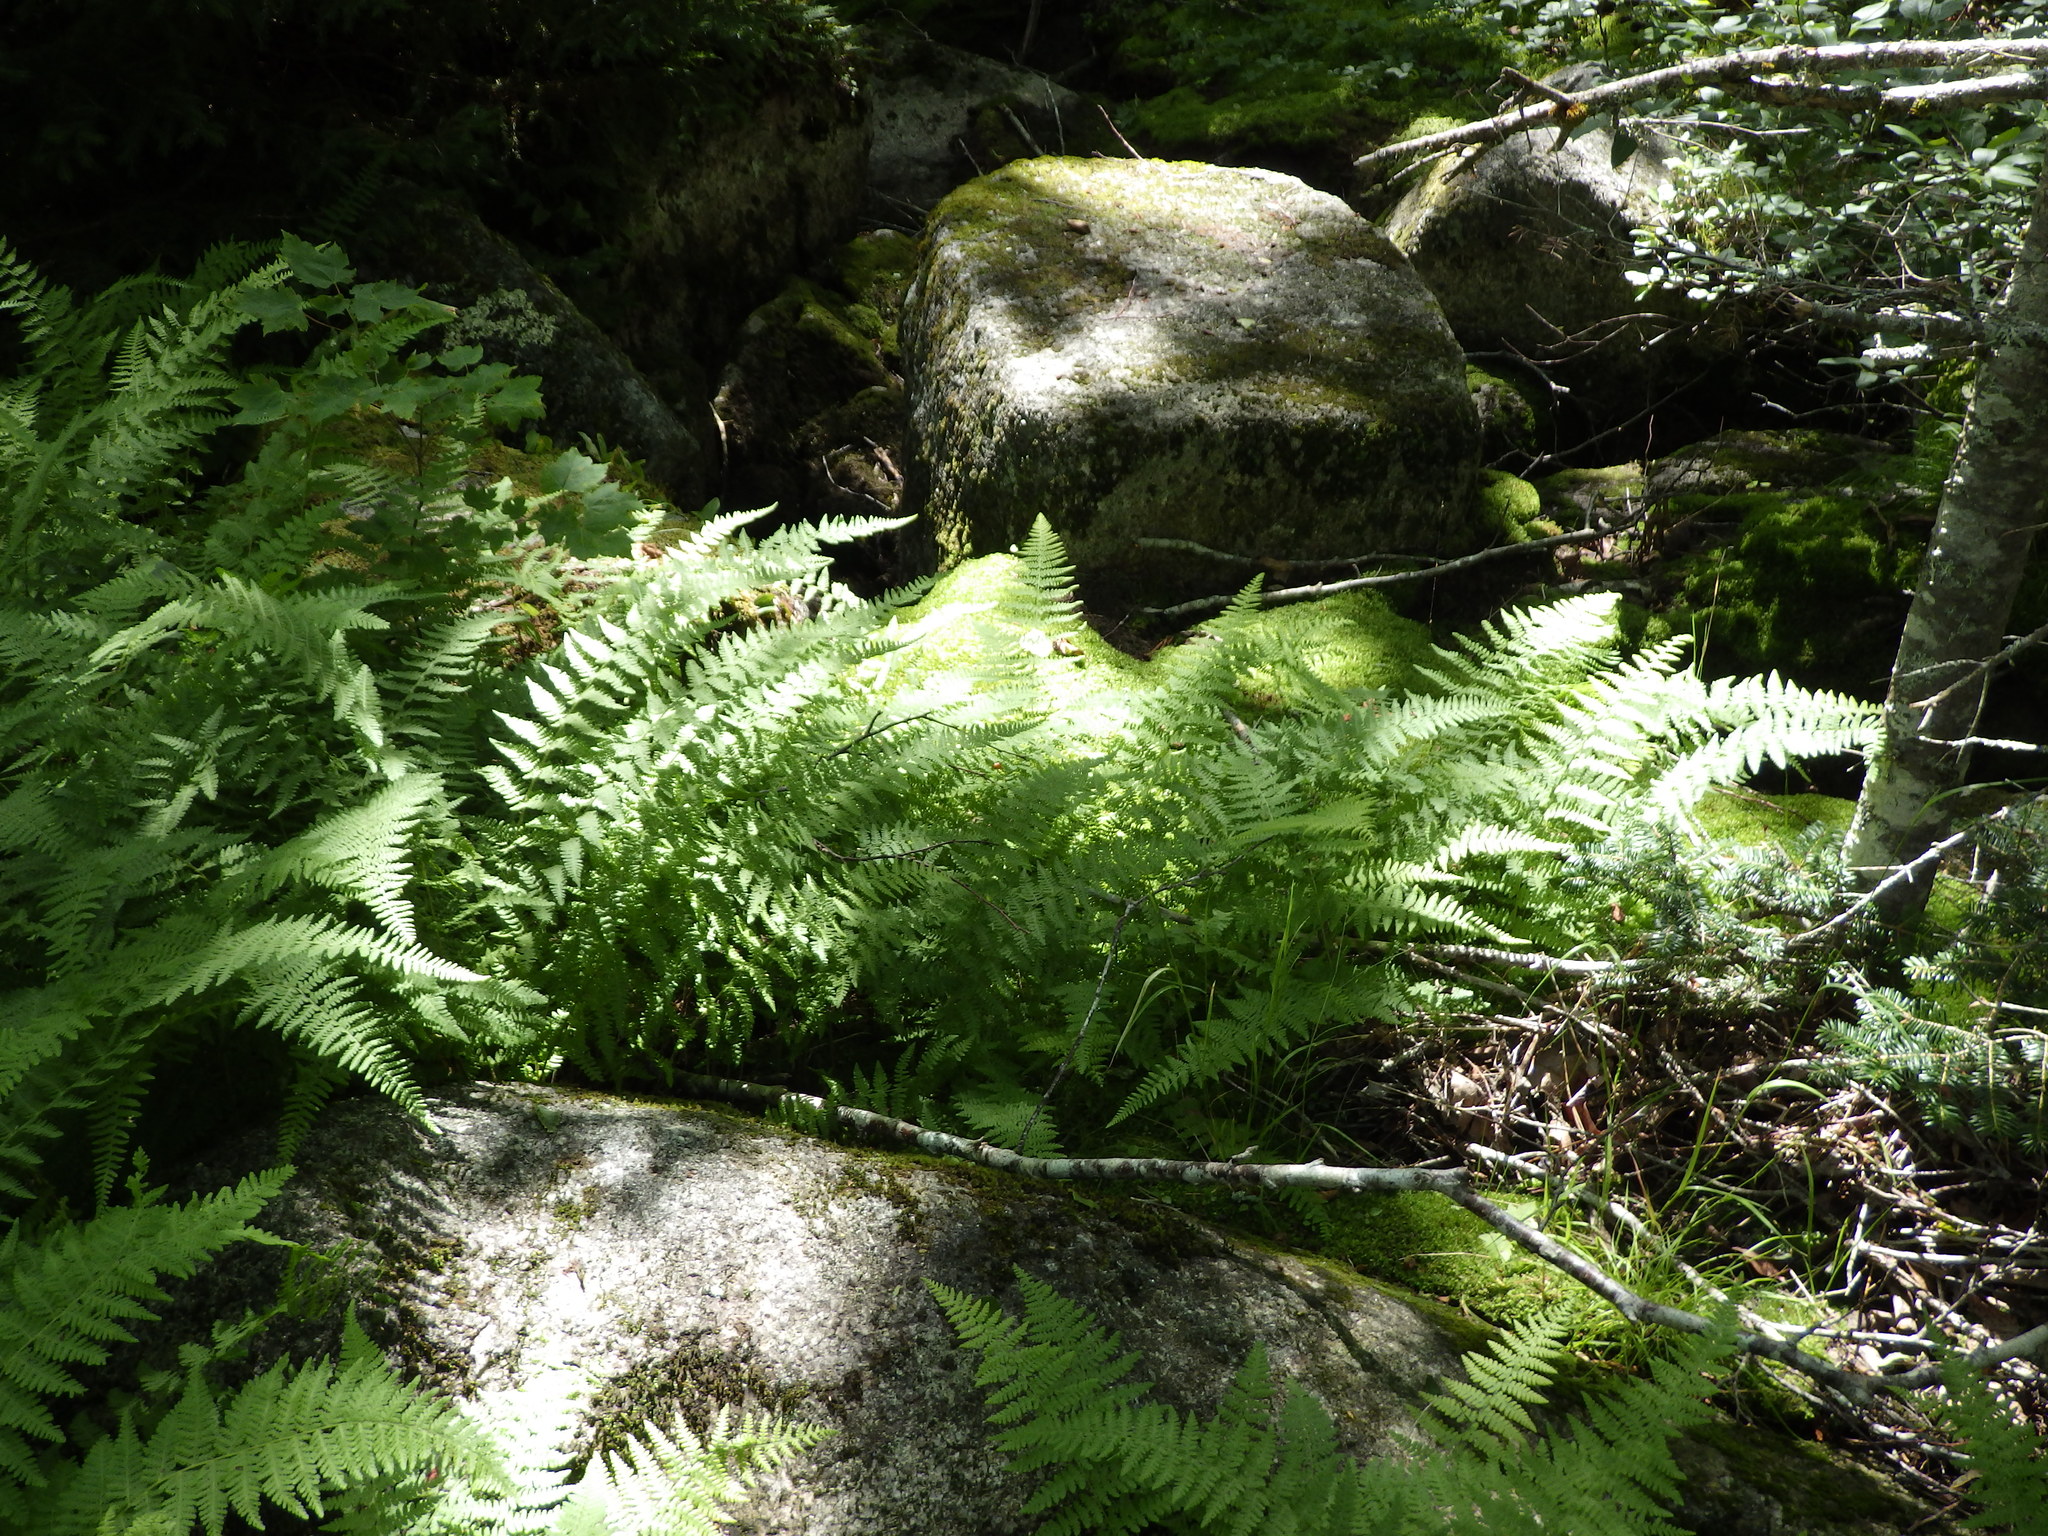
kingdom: Plantae
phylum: Tracheophyta
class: Polypodiopsida
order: Polypodiales
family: Dennstaedtiaceae
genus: Sitobolium
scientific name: Sitobolium punctilobum
